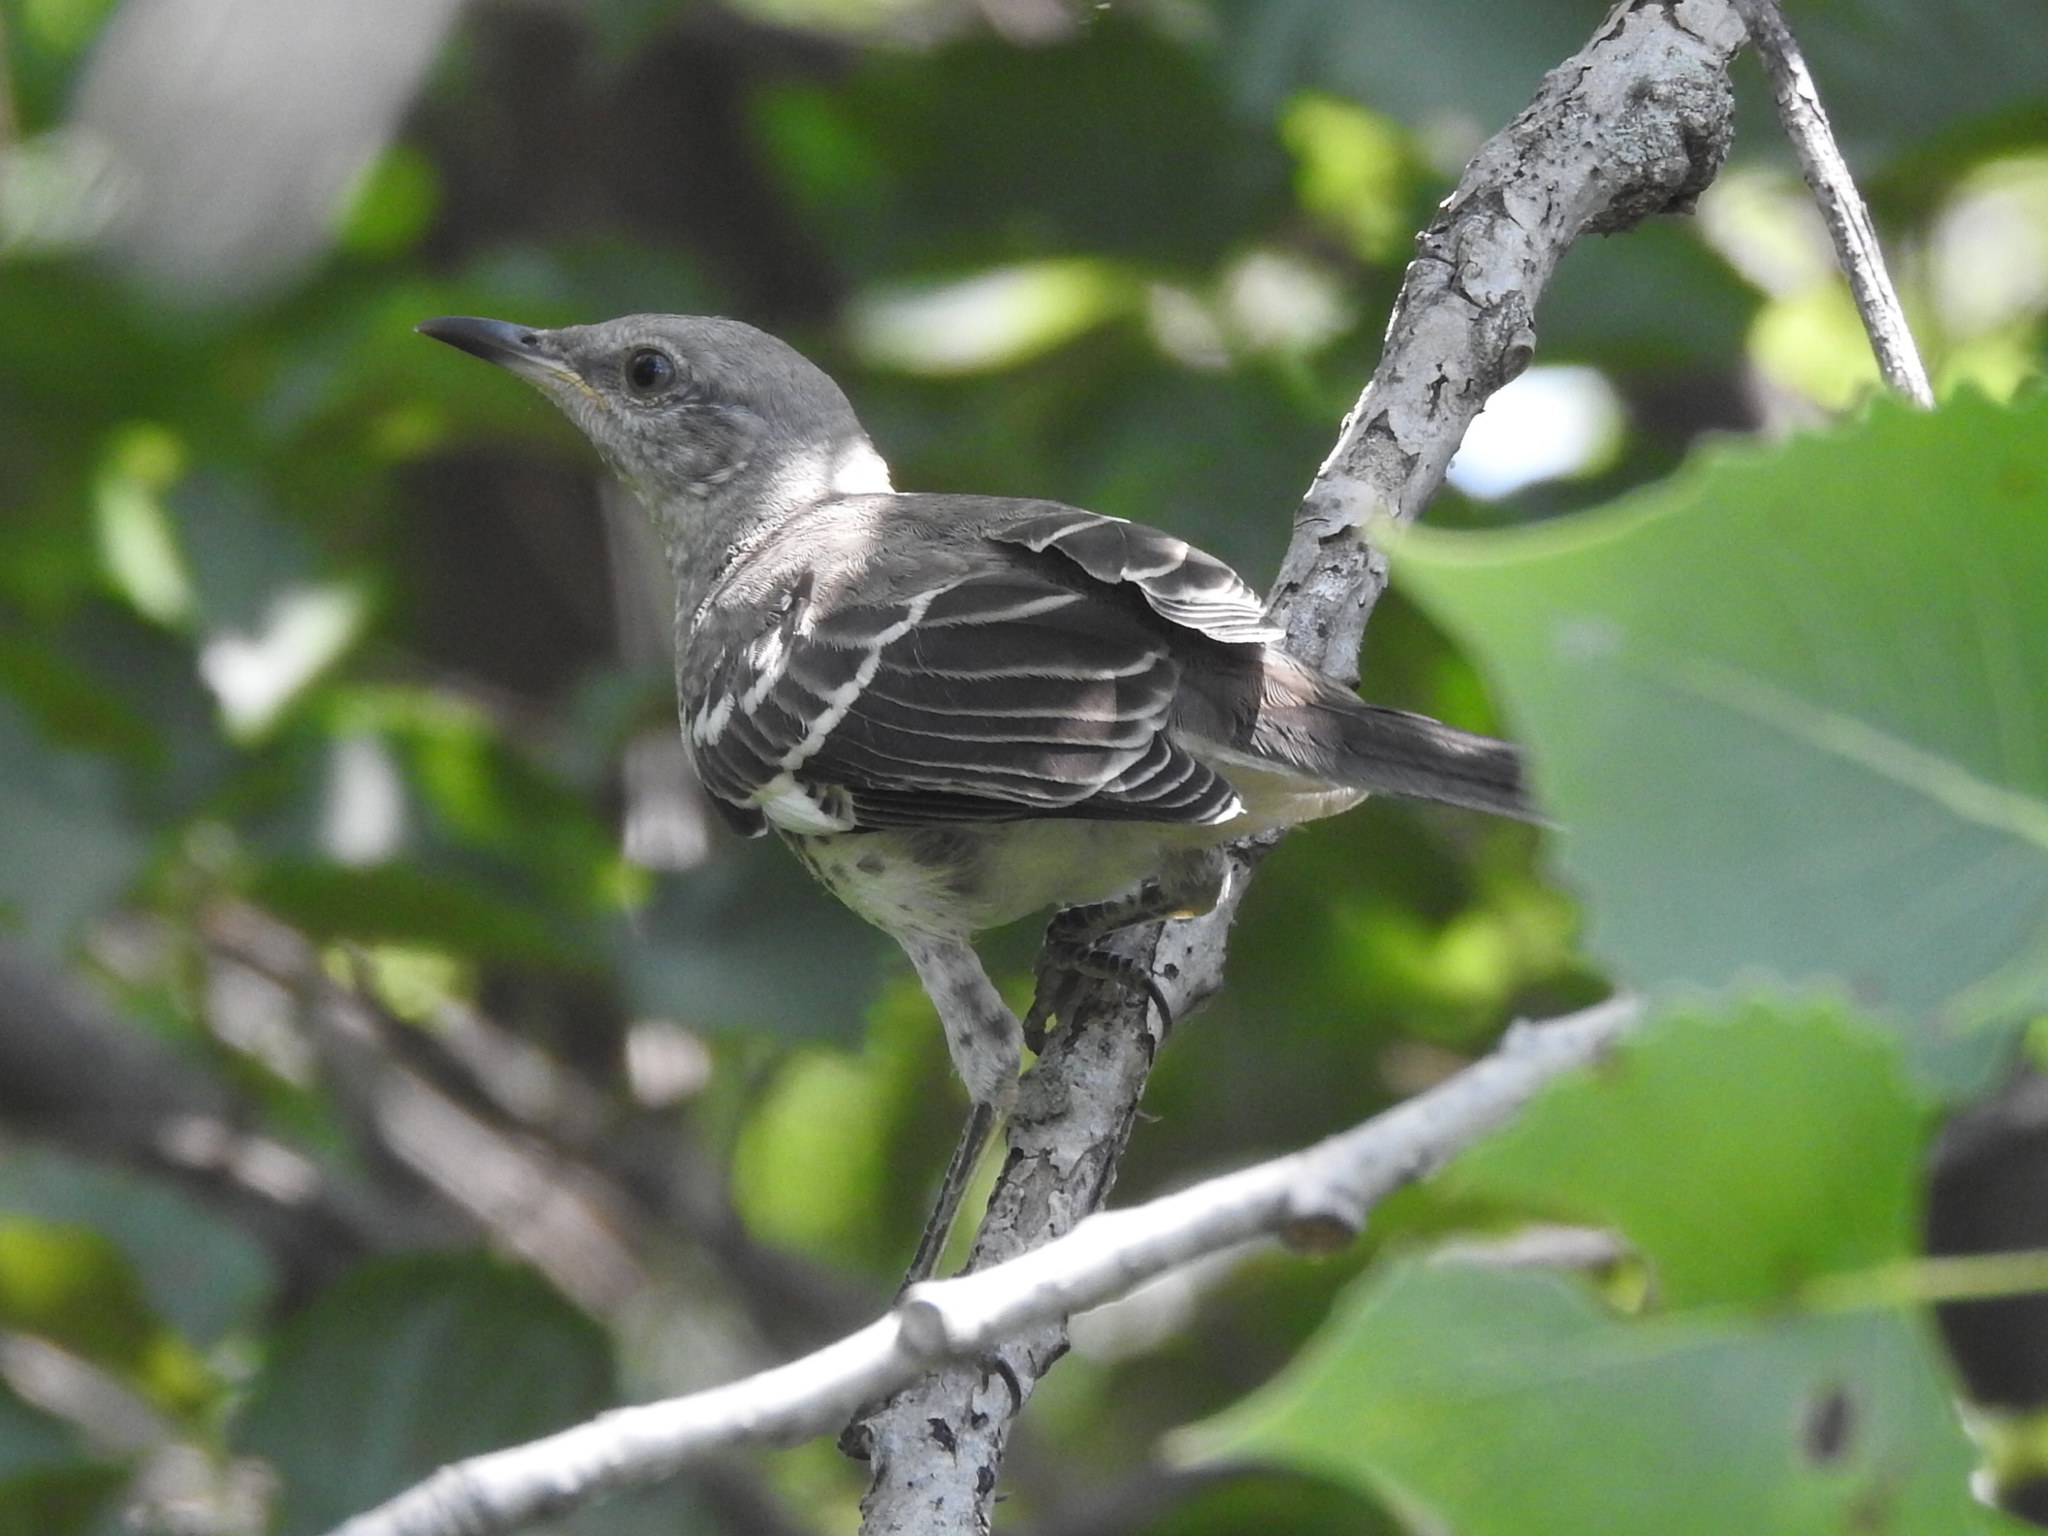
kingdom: Animalia
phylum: Chordata
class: Aves
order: Passeriformes
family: Mimidae
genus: Mimus
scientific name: Mimus polyglottos
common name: Northern mockingbird
